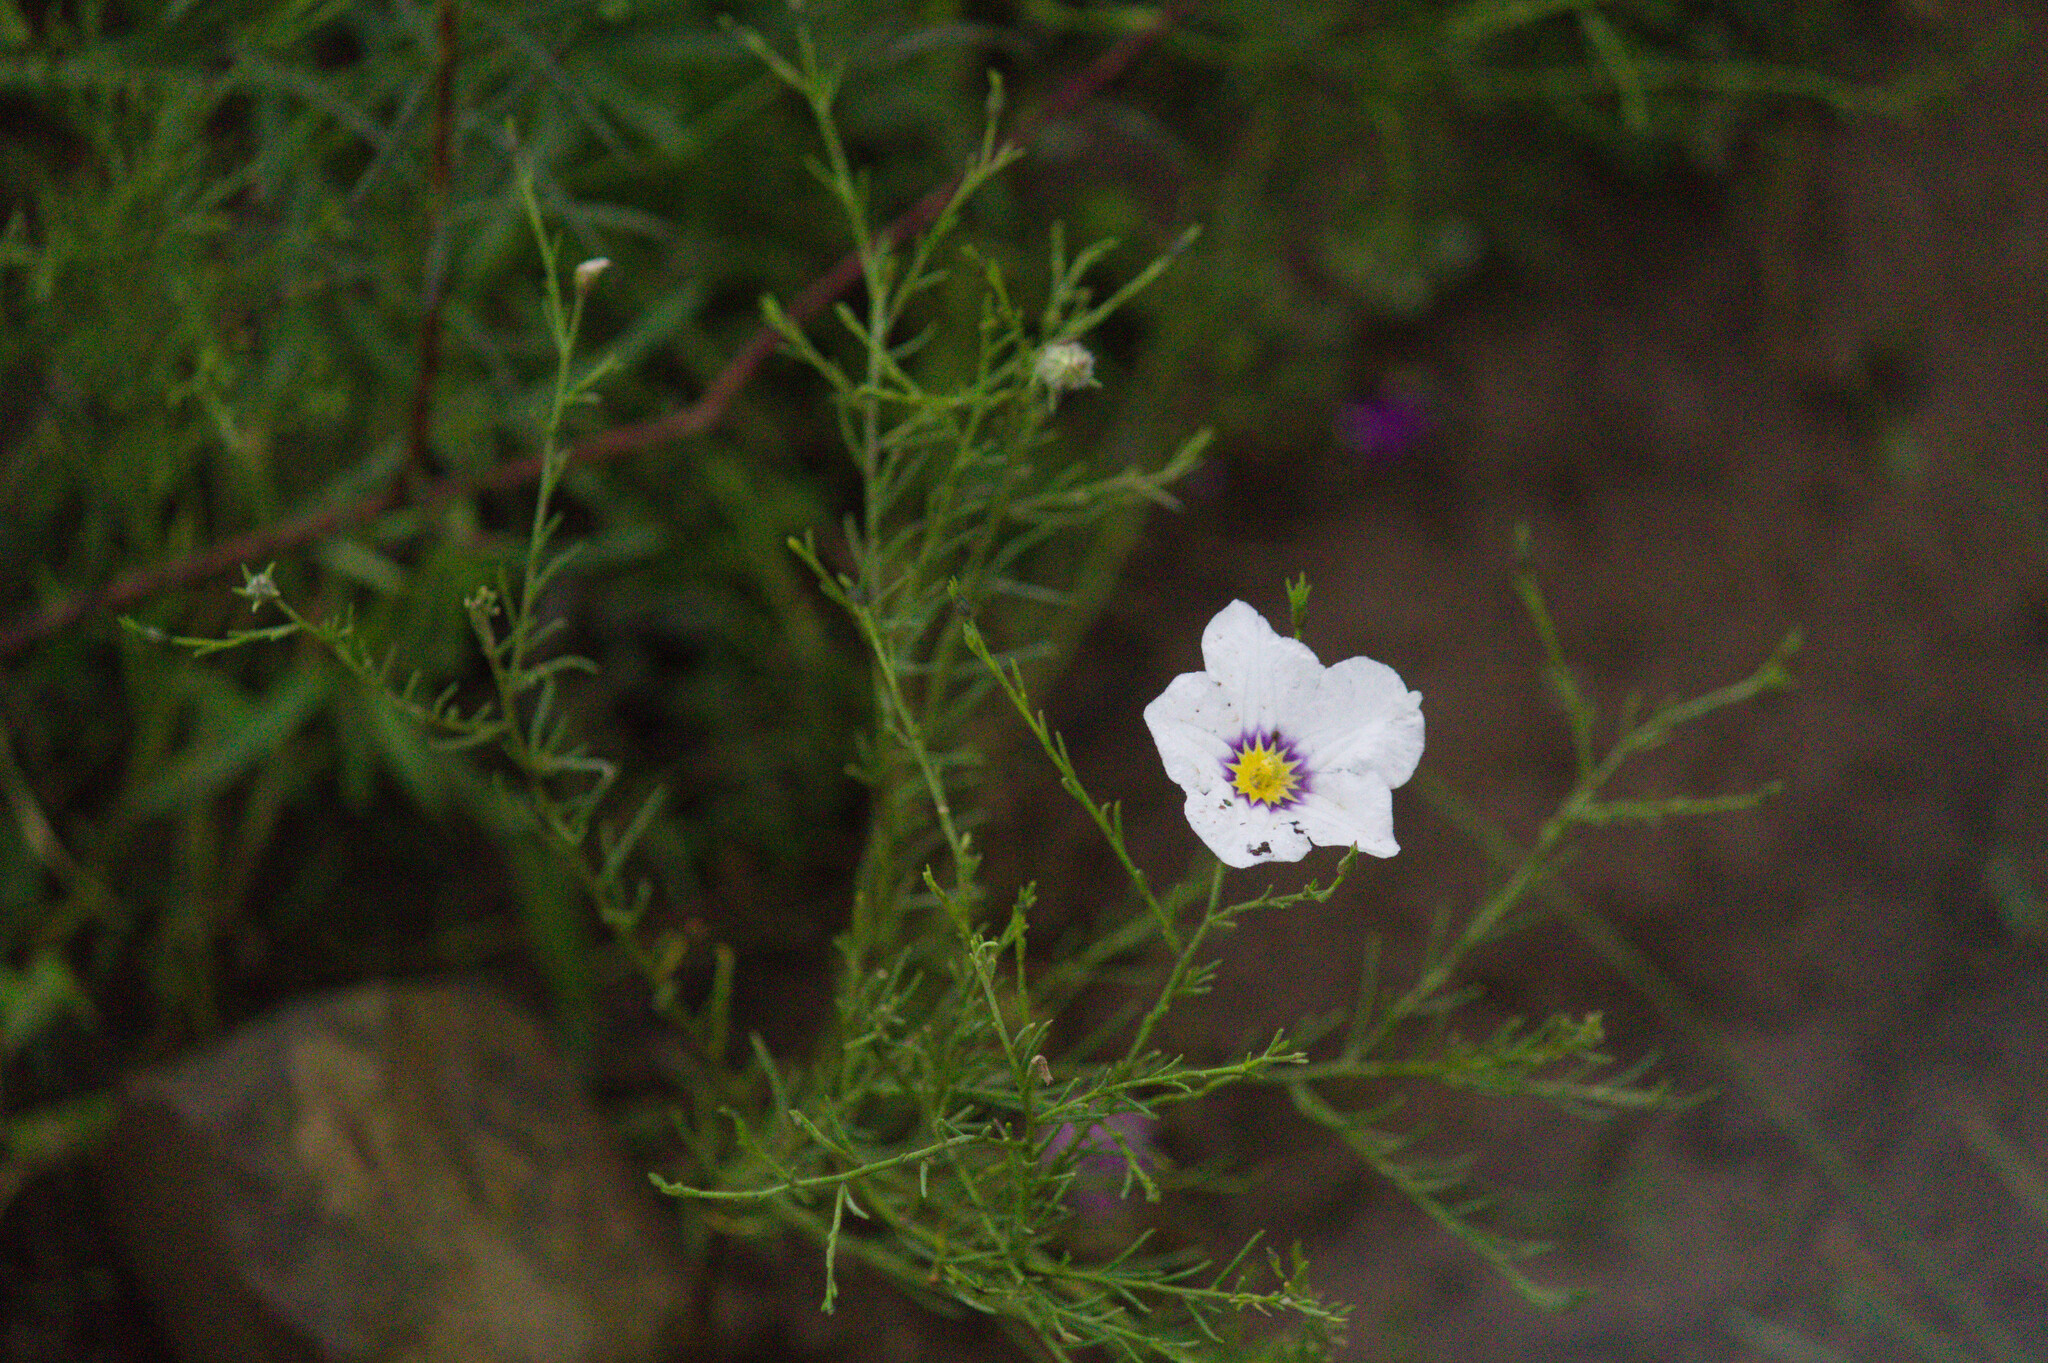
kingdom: Plantae
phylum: Tracheophyta
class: Magnoliopsida
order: Solanales
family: Solanaceae
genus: Nierembergia
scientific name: Nierembergia linariifolia
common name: Dwarf cupflower
